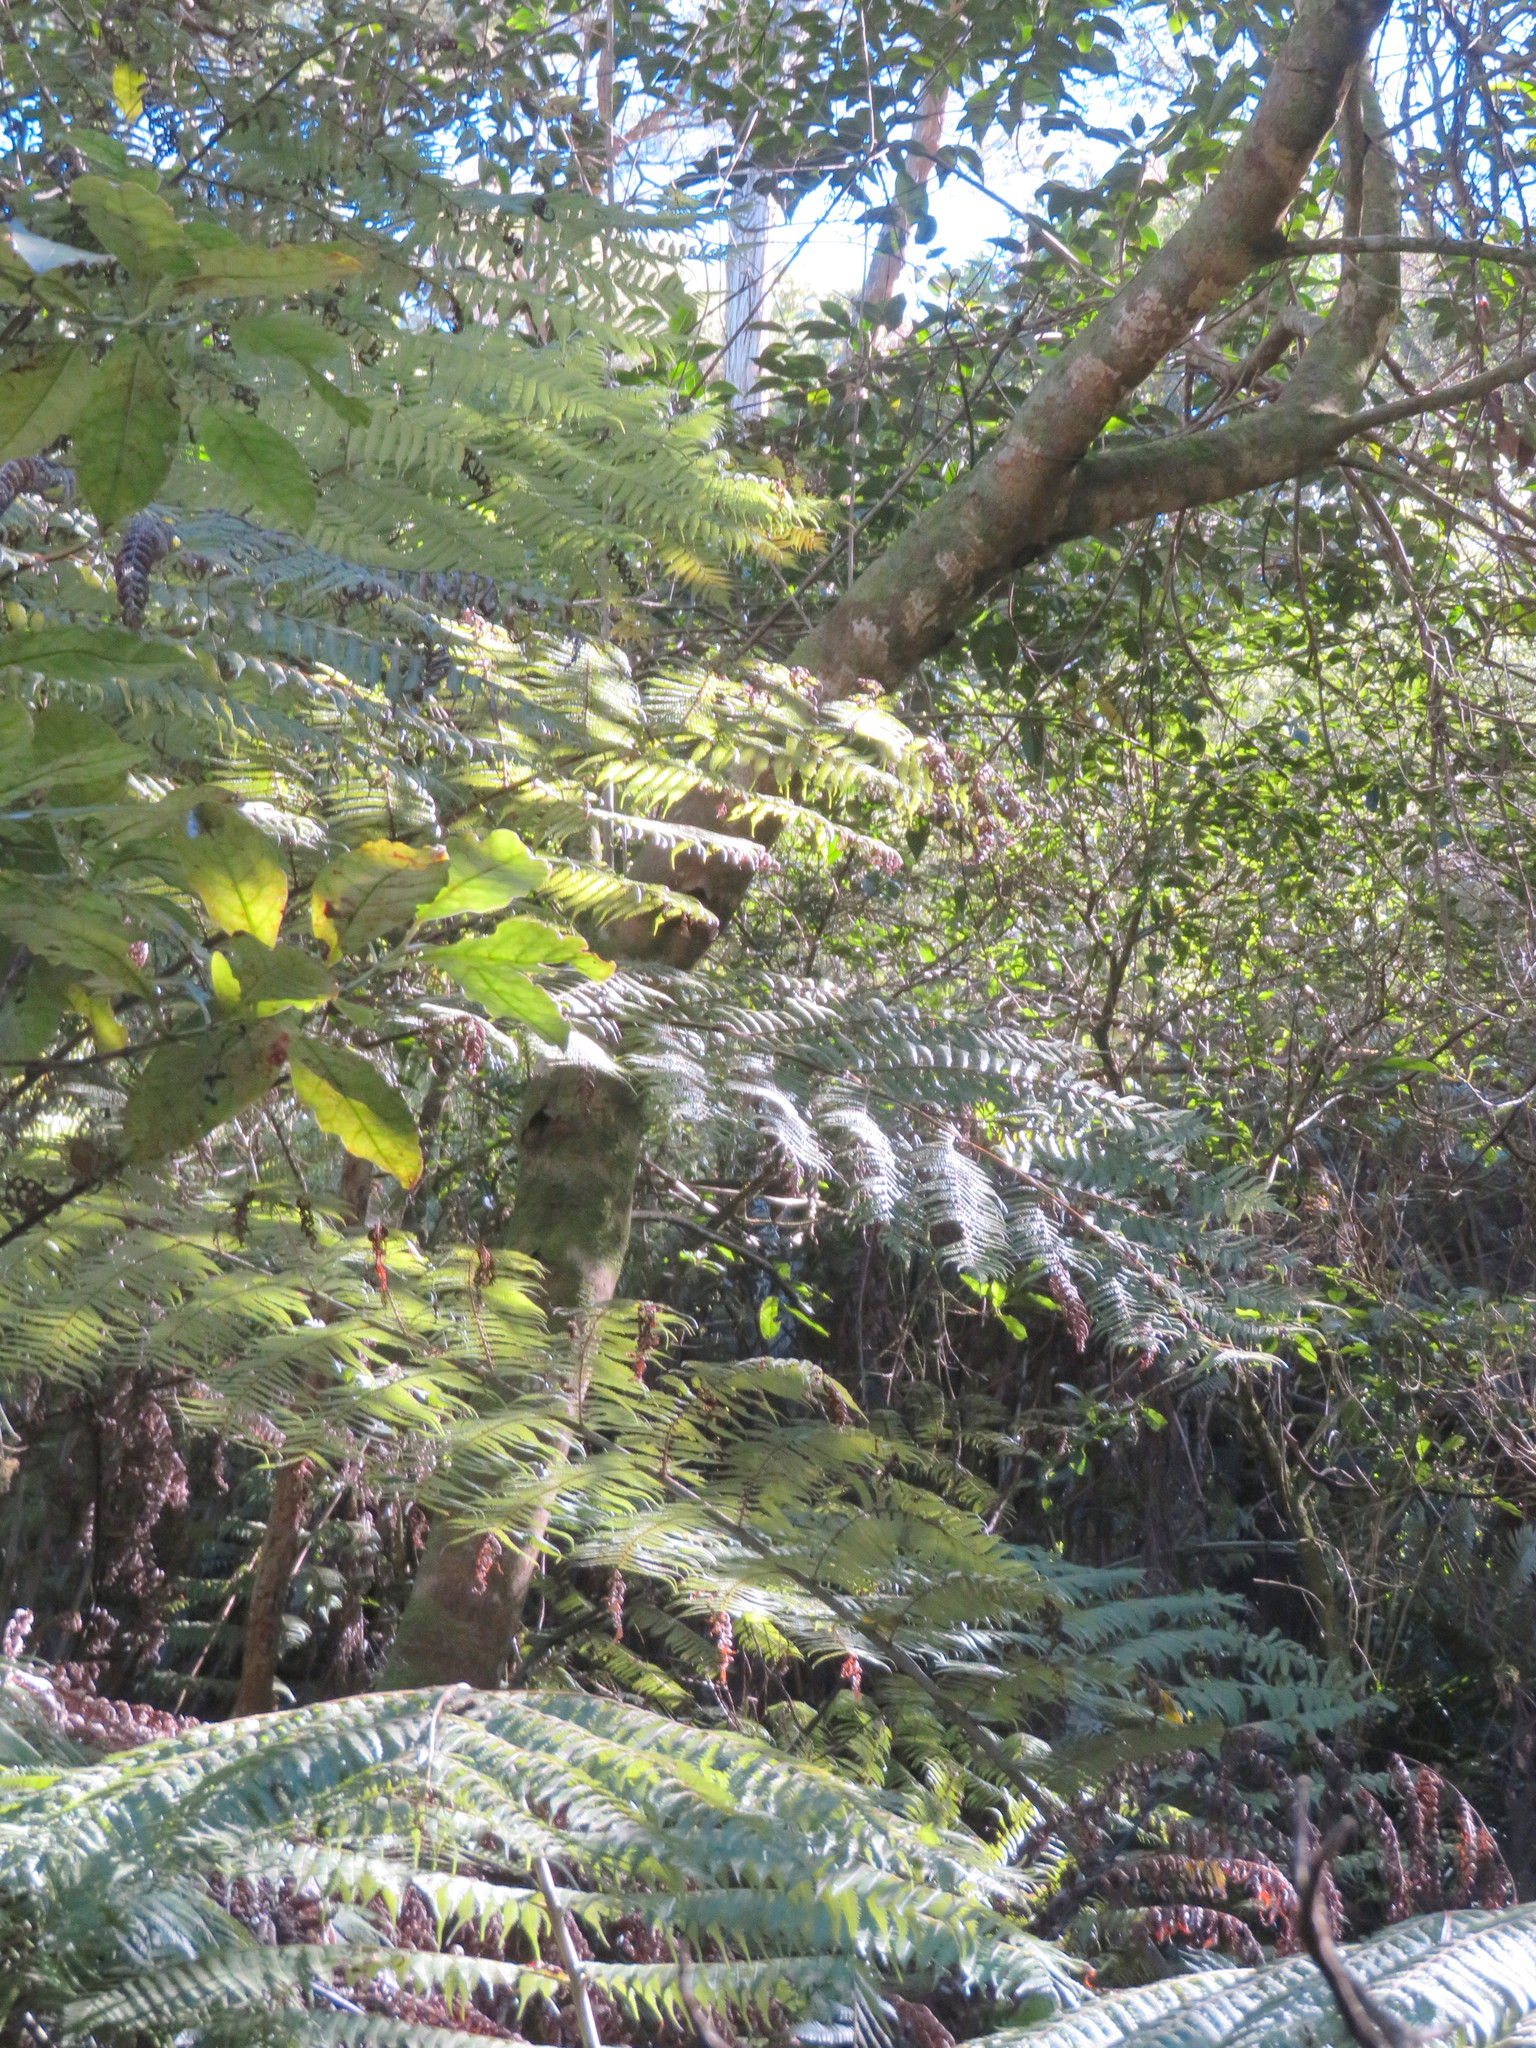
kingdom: Plantae
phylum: Tracheophyta
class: Magnoliopsida
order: Lamiales
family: Oleaceae
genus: Ligustrum
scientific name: Ligustrum lucidum
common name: Glossy privet
